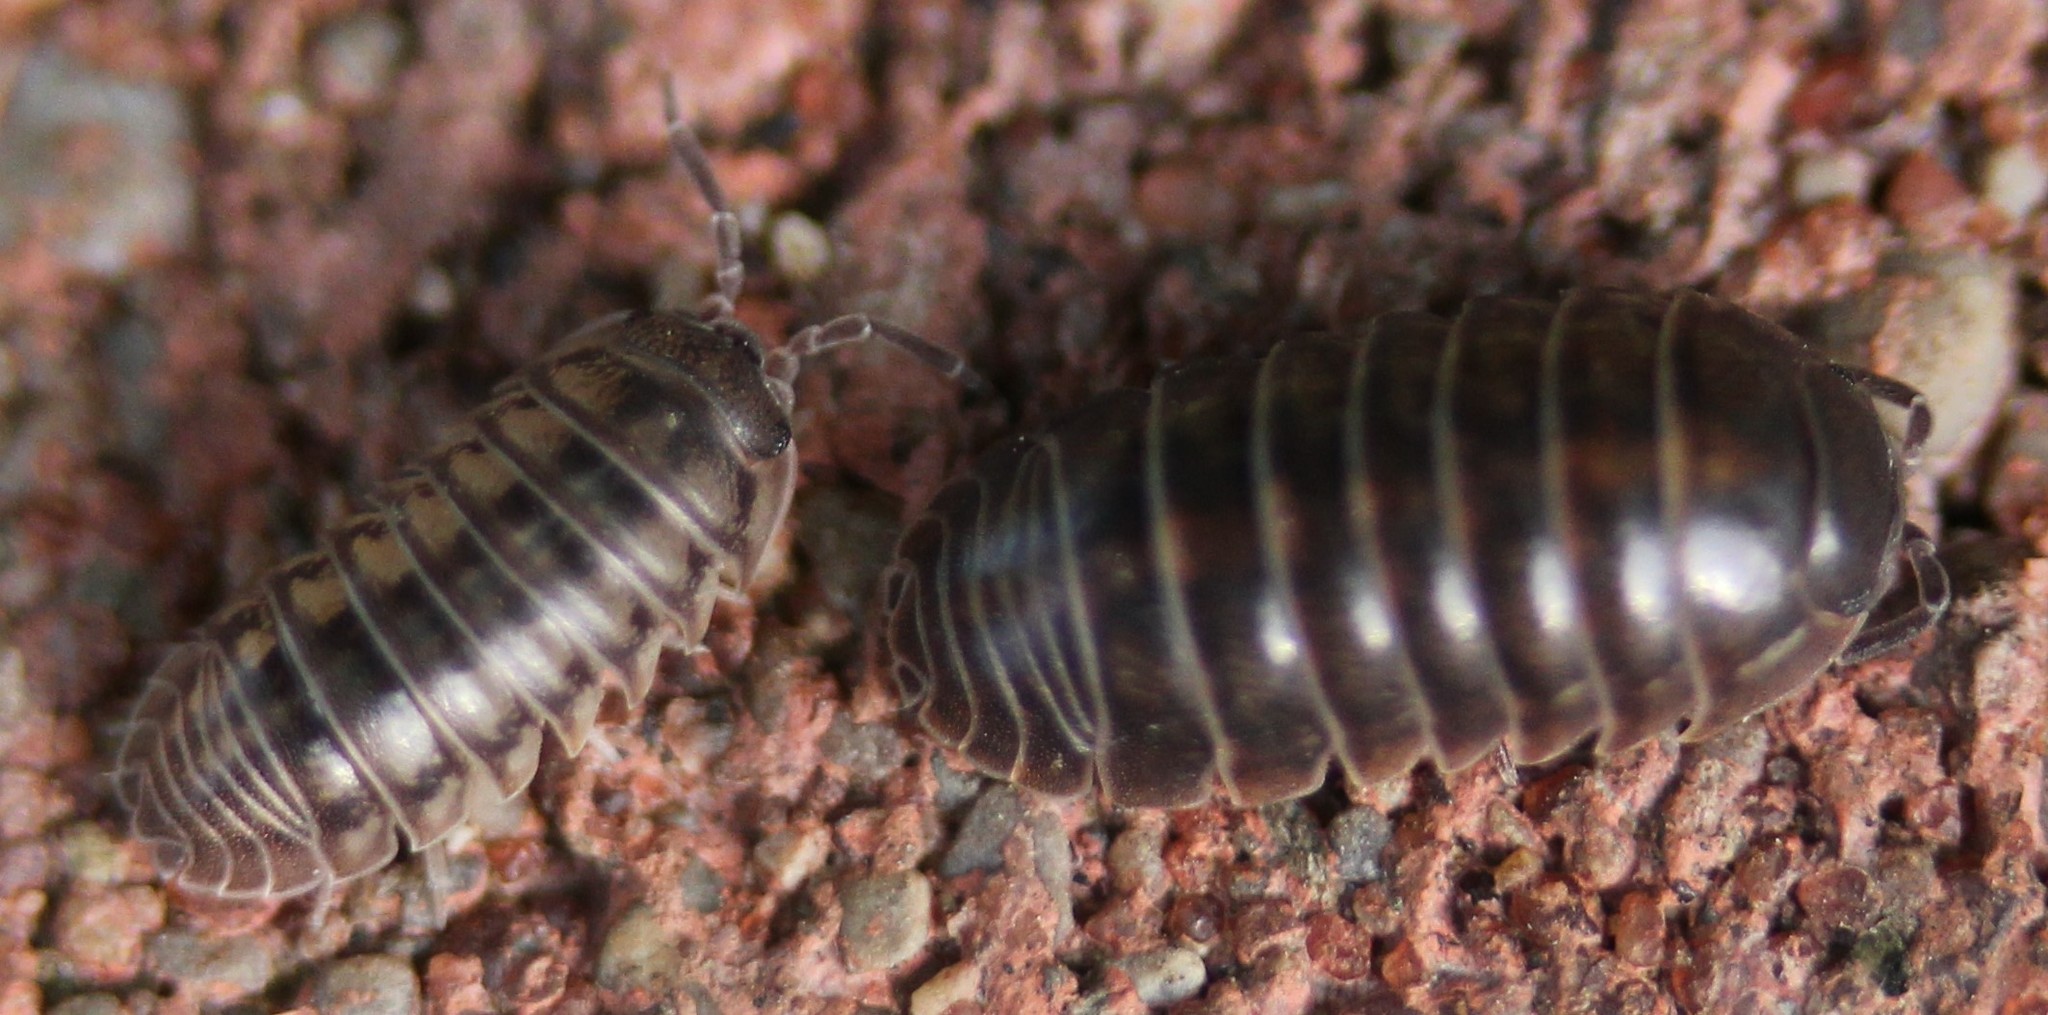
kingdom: Animalia
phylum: Arthropoda
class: Malacostraca
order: Isopoda
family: Armadillidiidae
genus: Armadillidium
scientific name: Armadillidium nasatum
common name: Isopod
